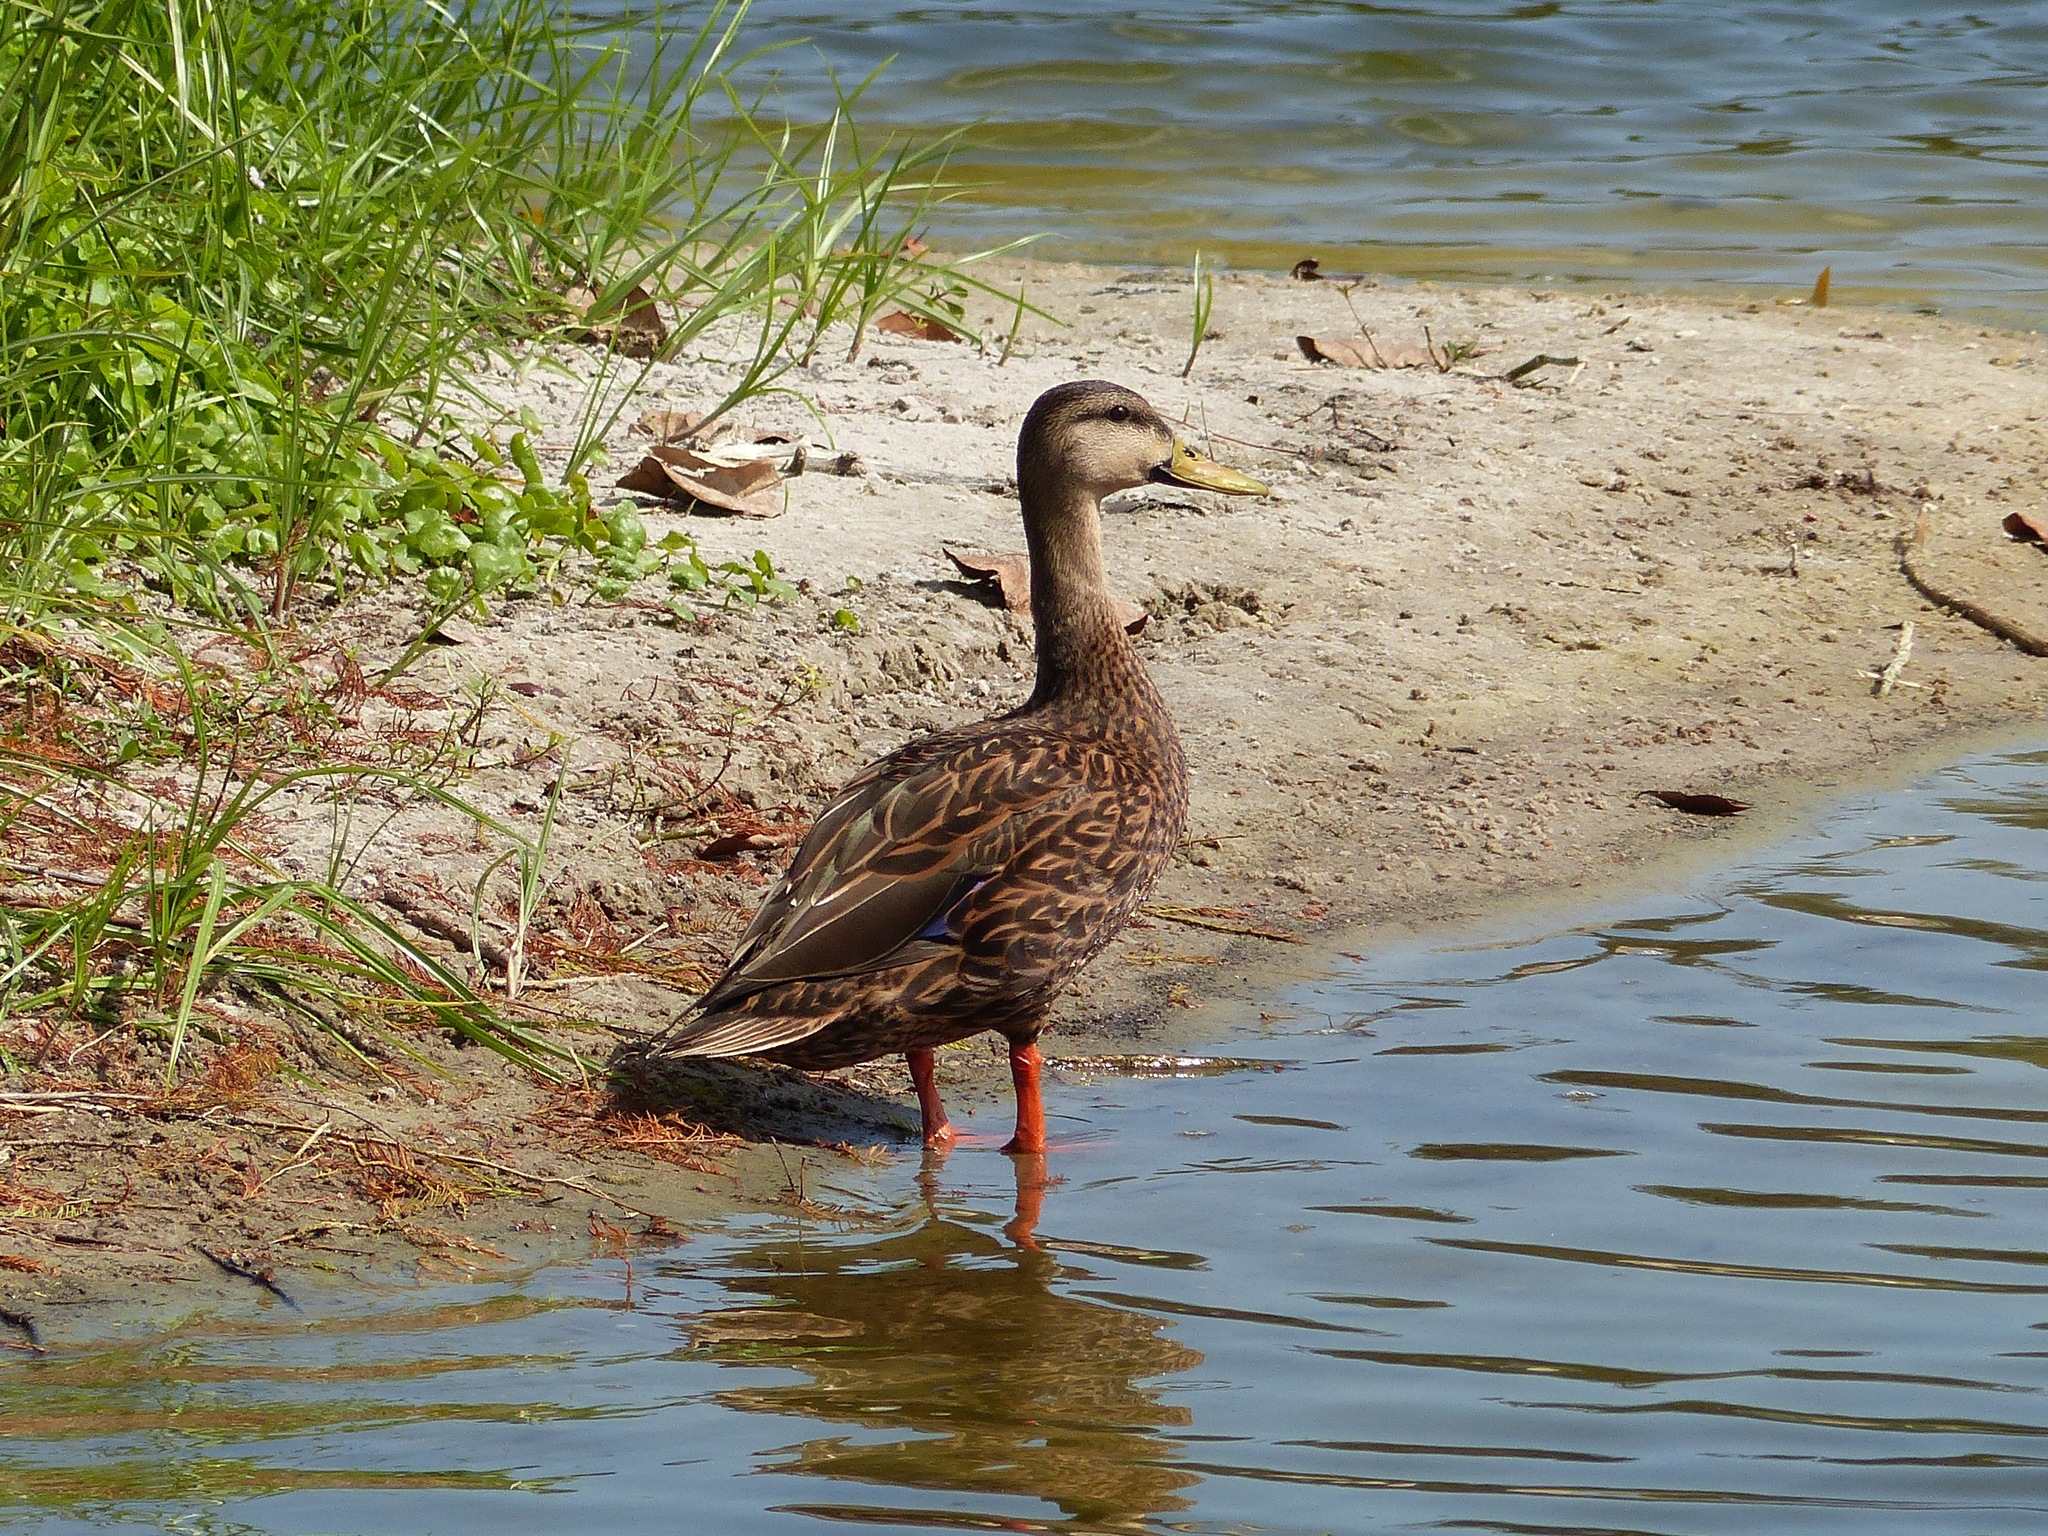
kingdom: Animalia
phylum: Chordata
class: Aves
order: Anseriformes
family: Anatidae
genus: Anas
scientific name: Anas fulvigula
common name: Mottled duck
